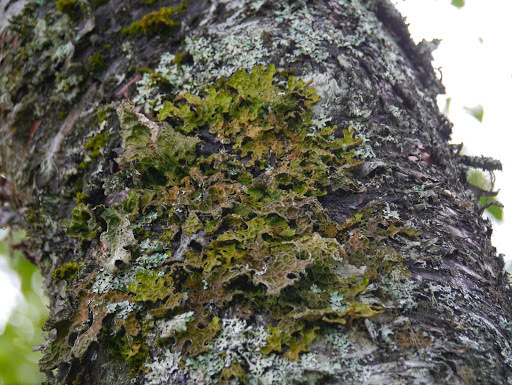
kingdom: Fungi
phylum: Ascomycota
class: Lecanoromycetes
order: Peltigerales
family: Lobariaceae
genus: Lobaria
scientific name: Lobaria pulmonaria
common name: Lungwort
